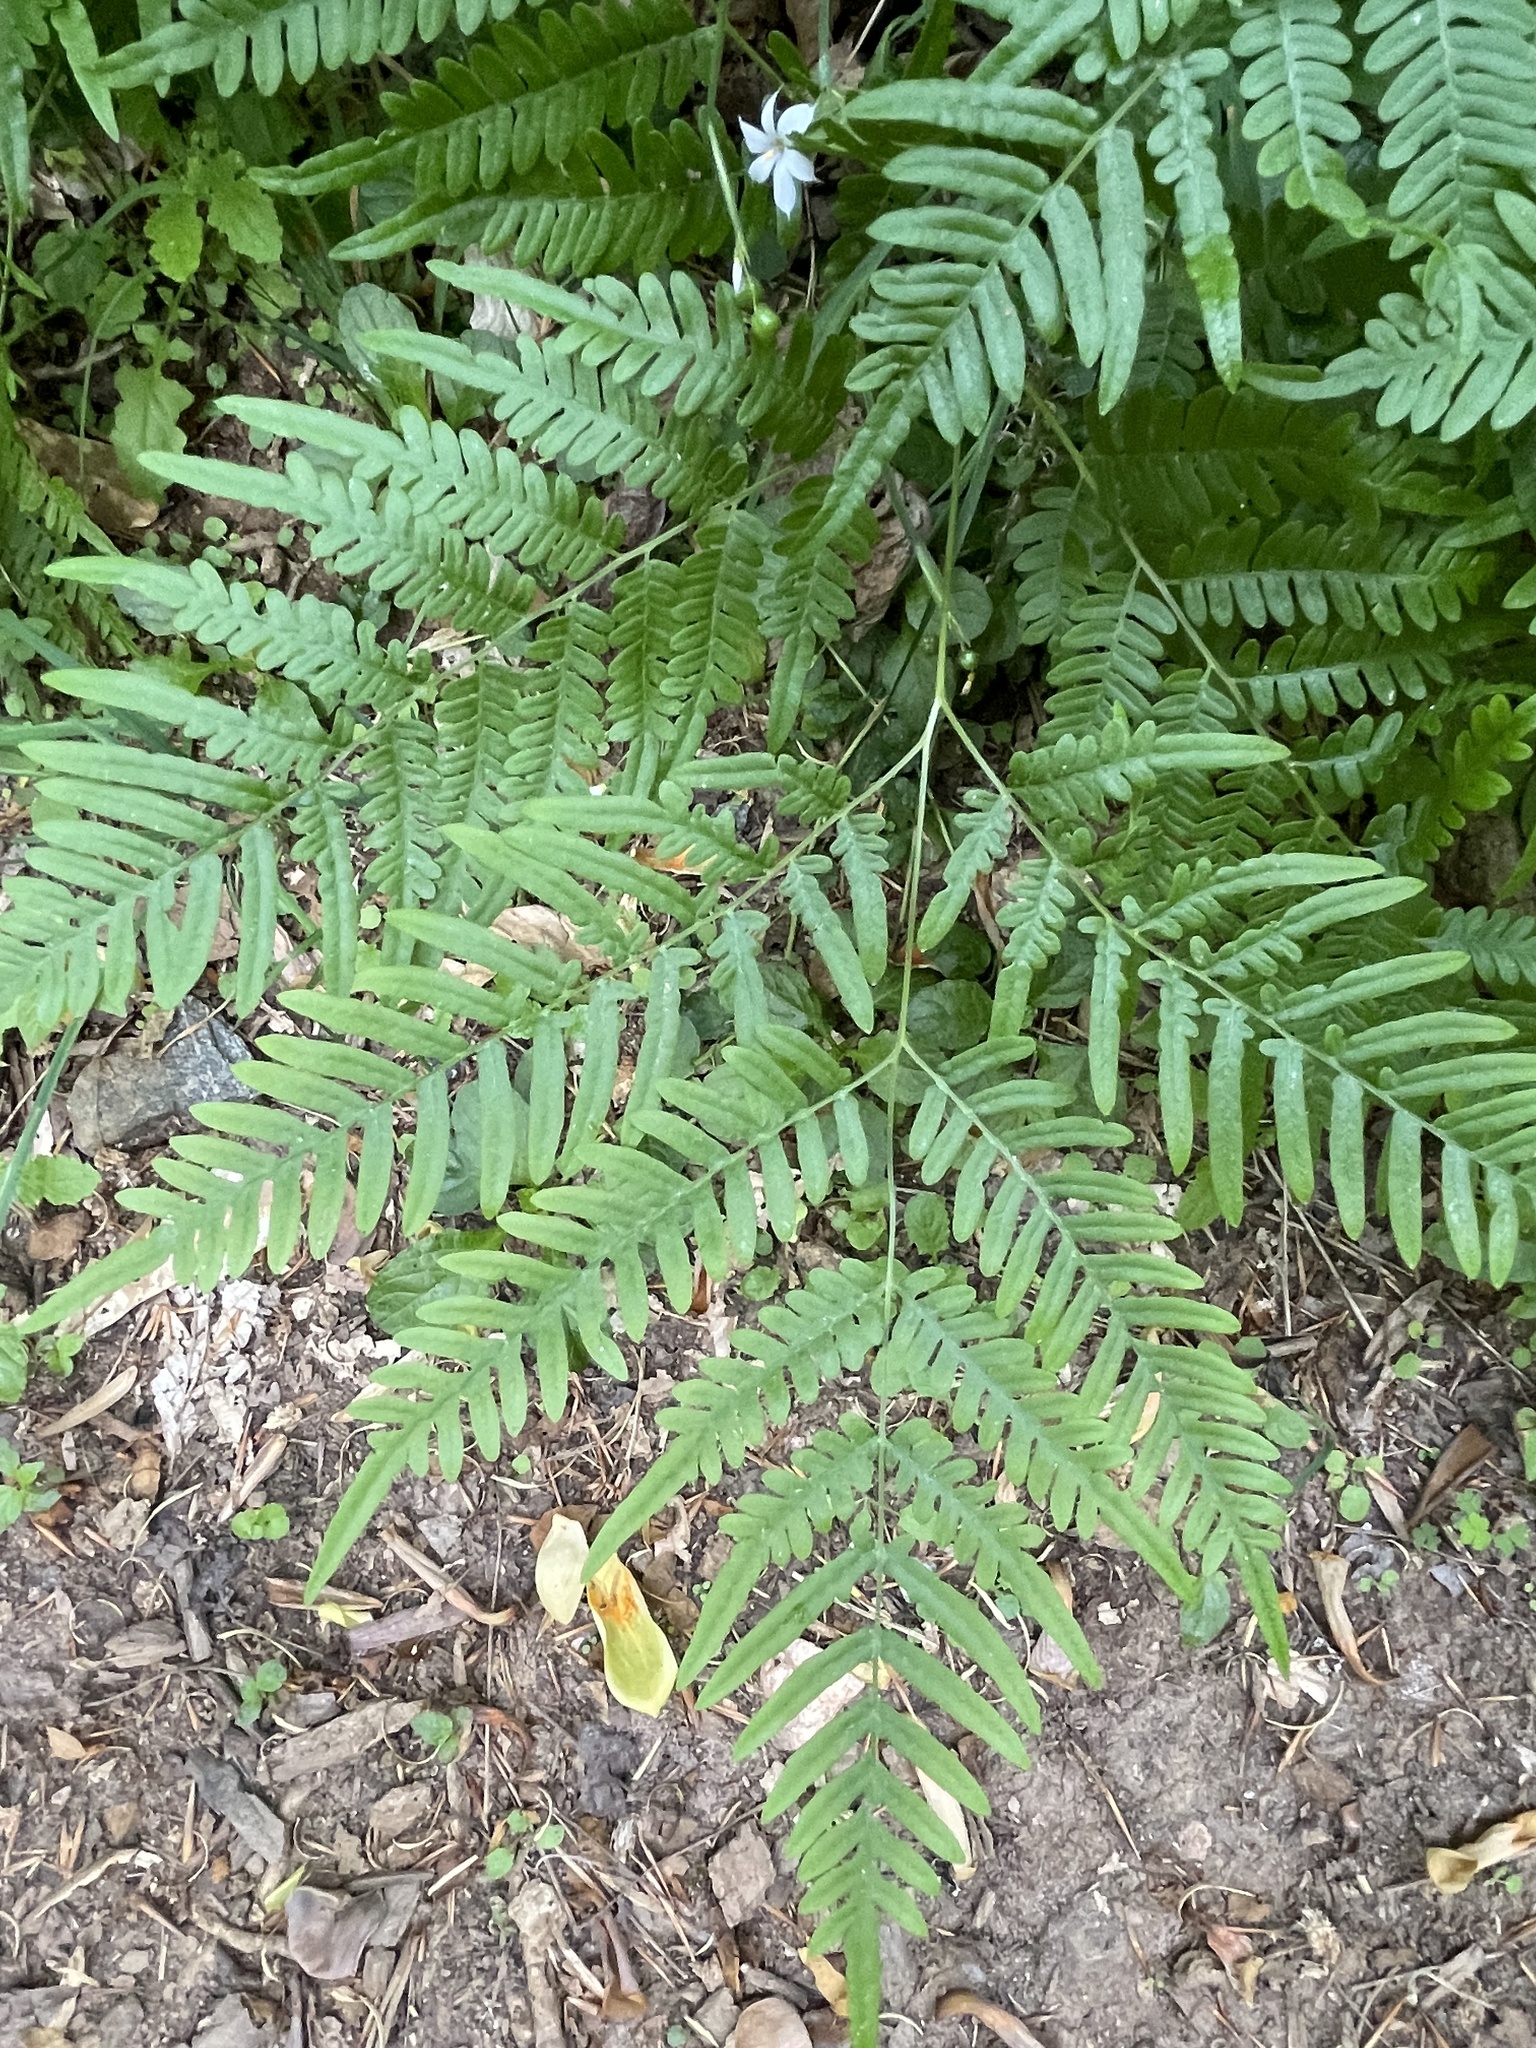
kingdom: Plantae
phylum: Tracheophyta
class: Polypodiopsida
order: Polypodiales
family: Dennstaedtiaceae
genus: Pteridium
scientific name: Pteridium aquilinum
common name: Bracken
